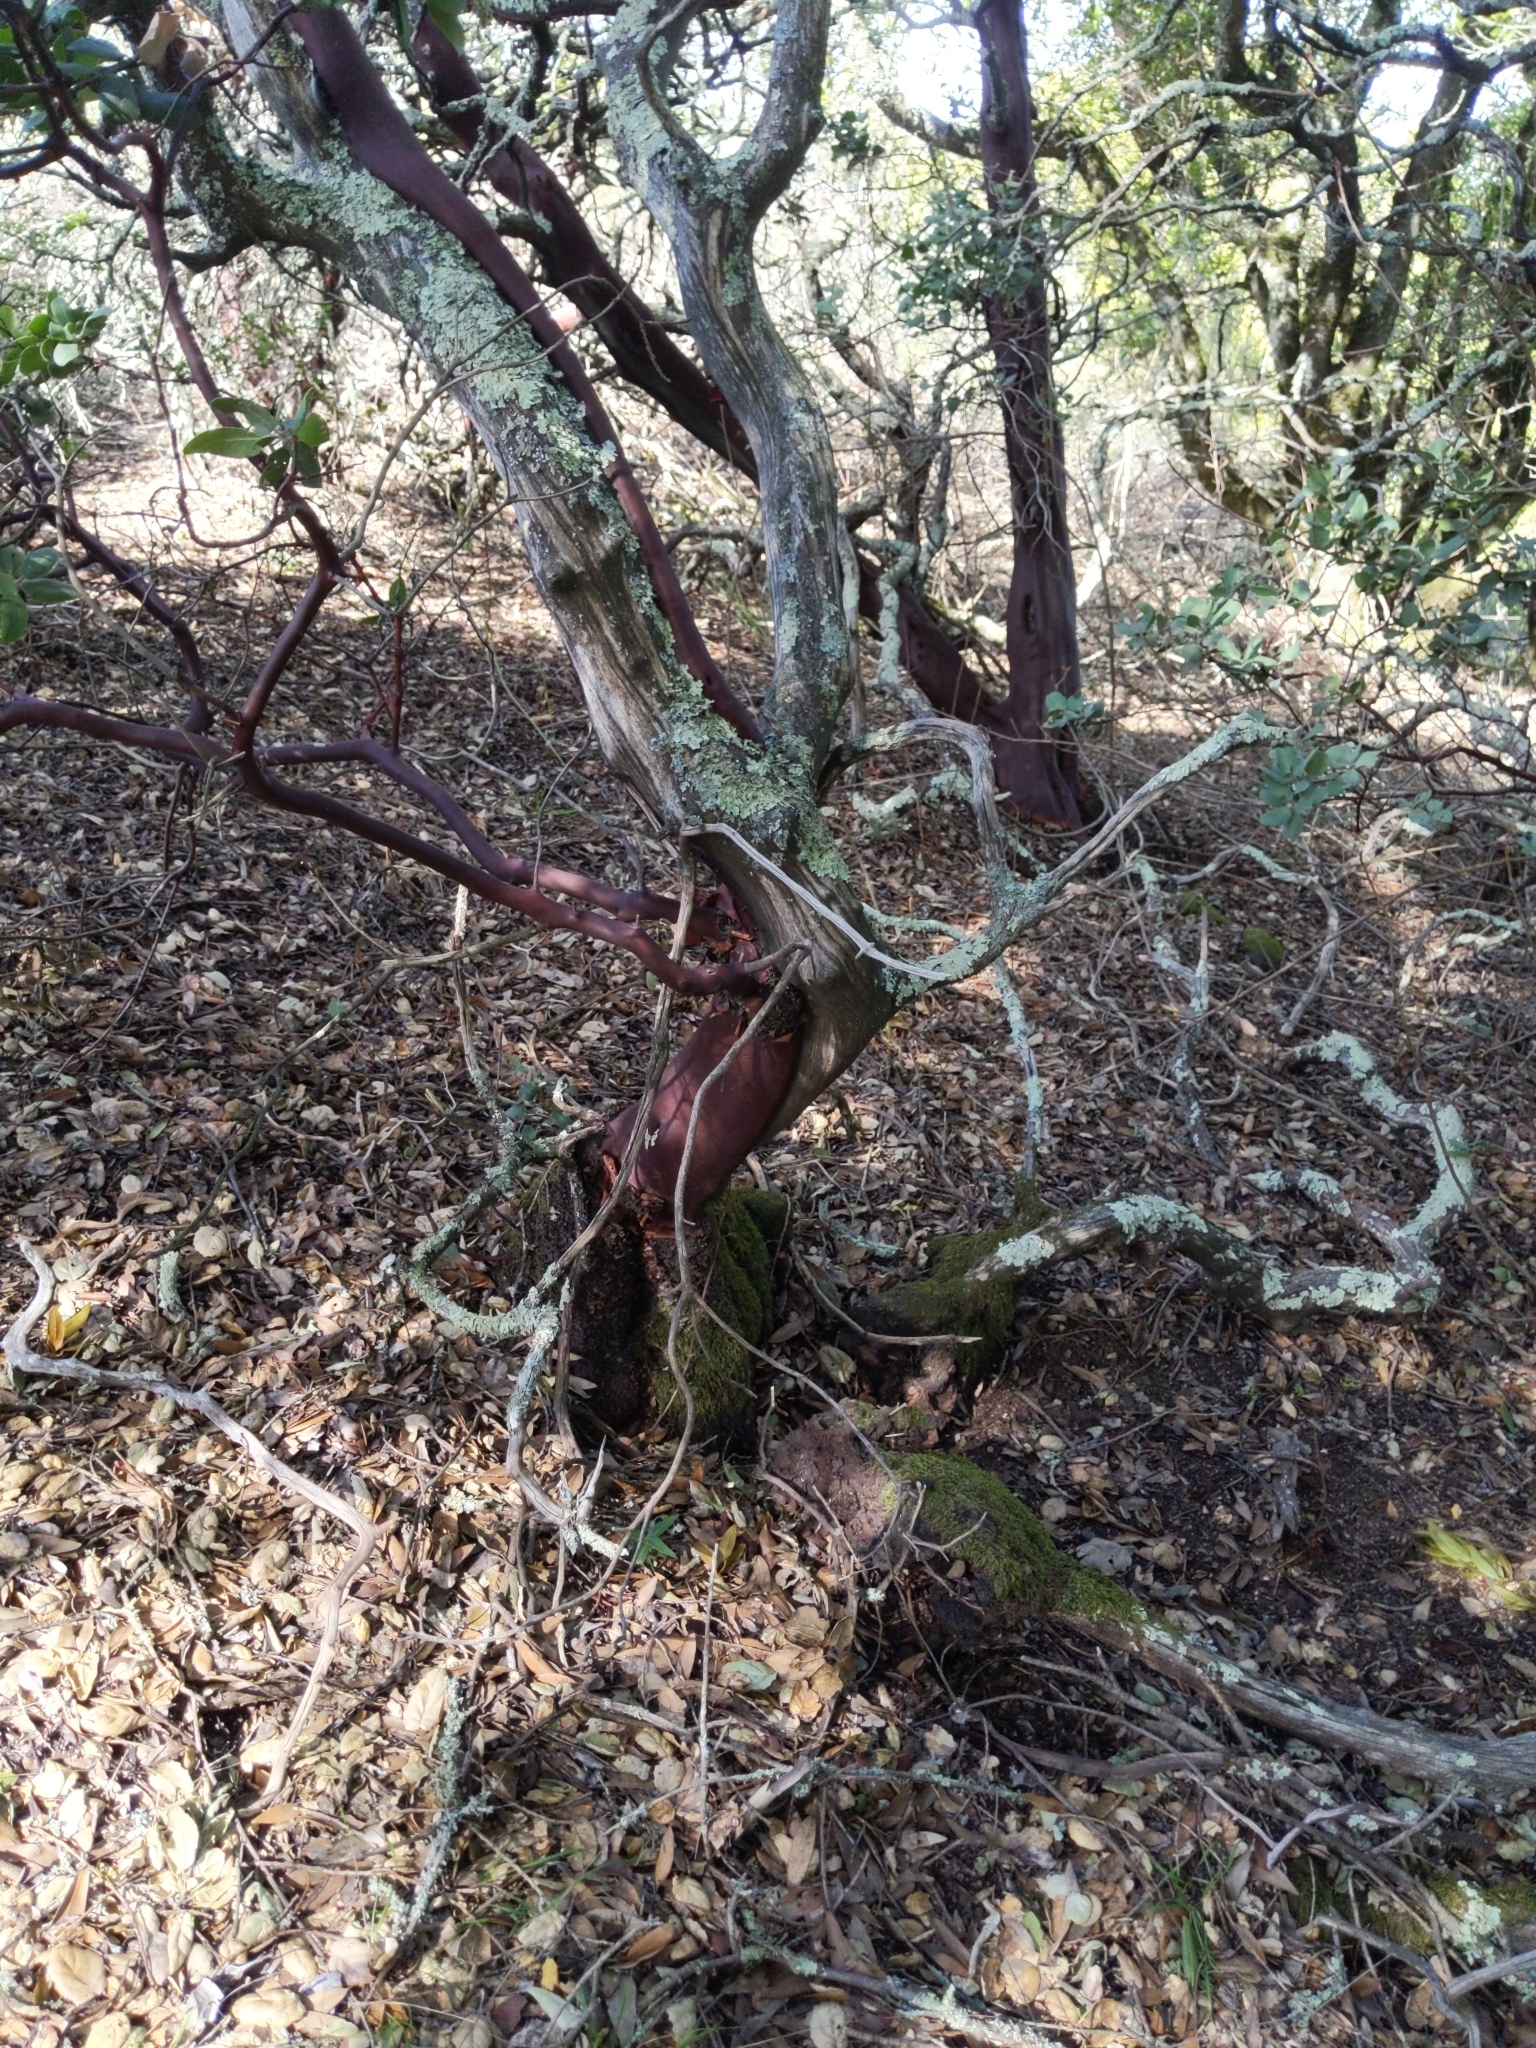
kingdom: Plantae
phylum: Tracheophyta
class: Magnoliopsida
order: Ericales
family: Ericaceae
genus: Arctostaphylos
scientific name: Arctostaphylos crustacea
